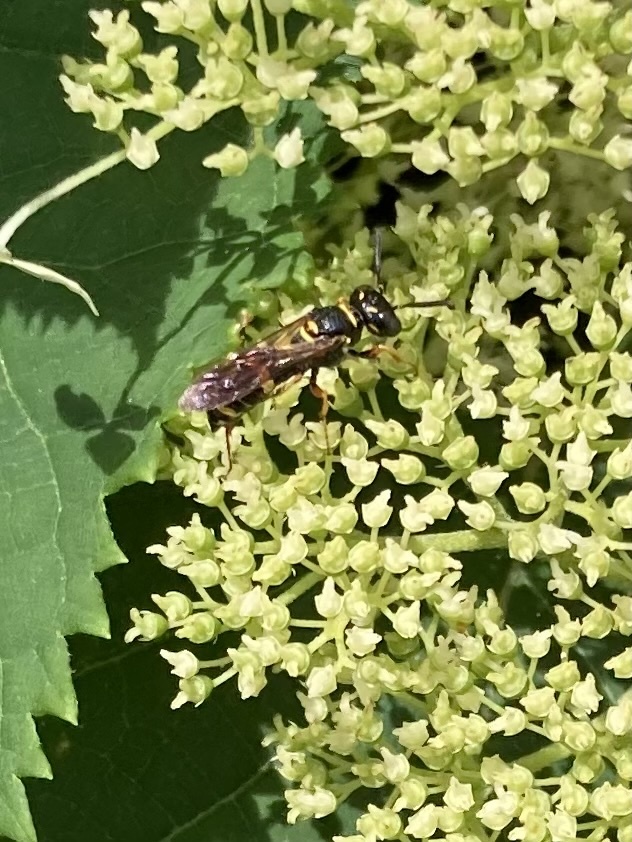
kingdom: Animalia
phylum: Arthropoda
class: Insecta
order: Hymenoptera
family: Crabronidae
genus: Philanthus
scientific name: Philanthus gibbosus
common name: Humped beewolf
